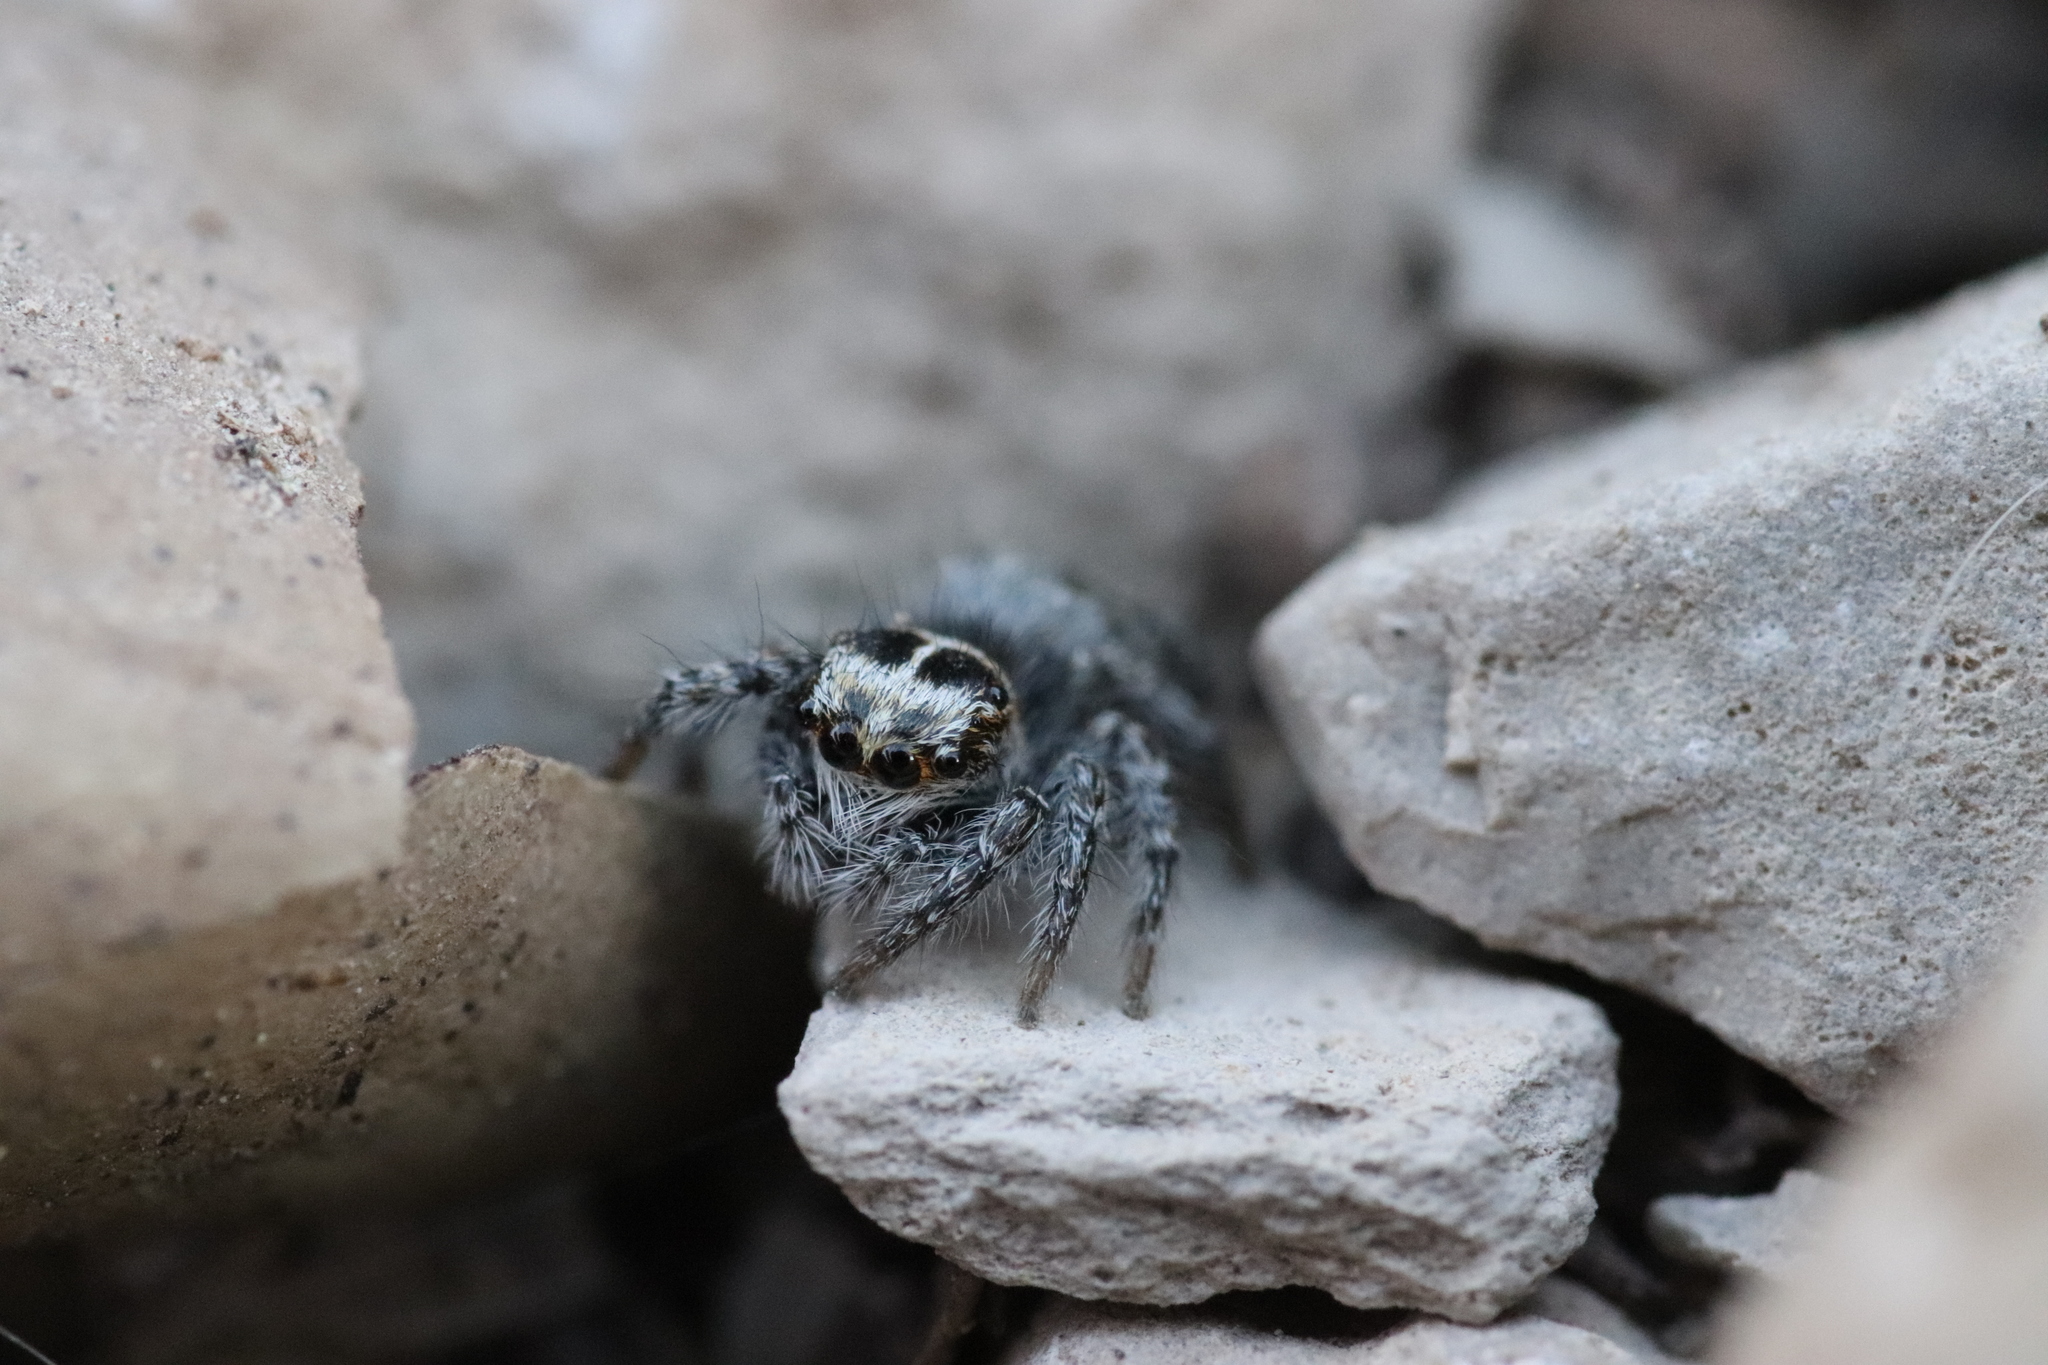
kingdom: Animalia
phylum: Arthropoda
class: Arachnida
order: Araneae
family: Salticidae
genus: Philaeus
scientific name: Philaeus chrysops
